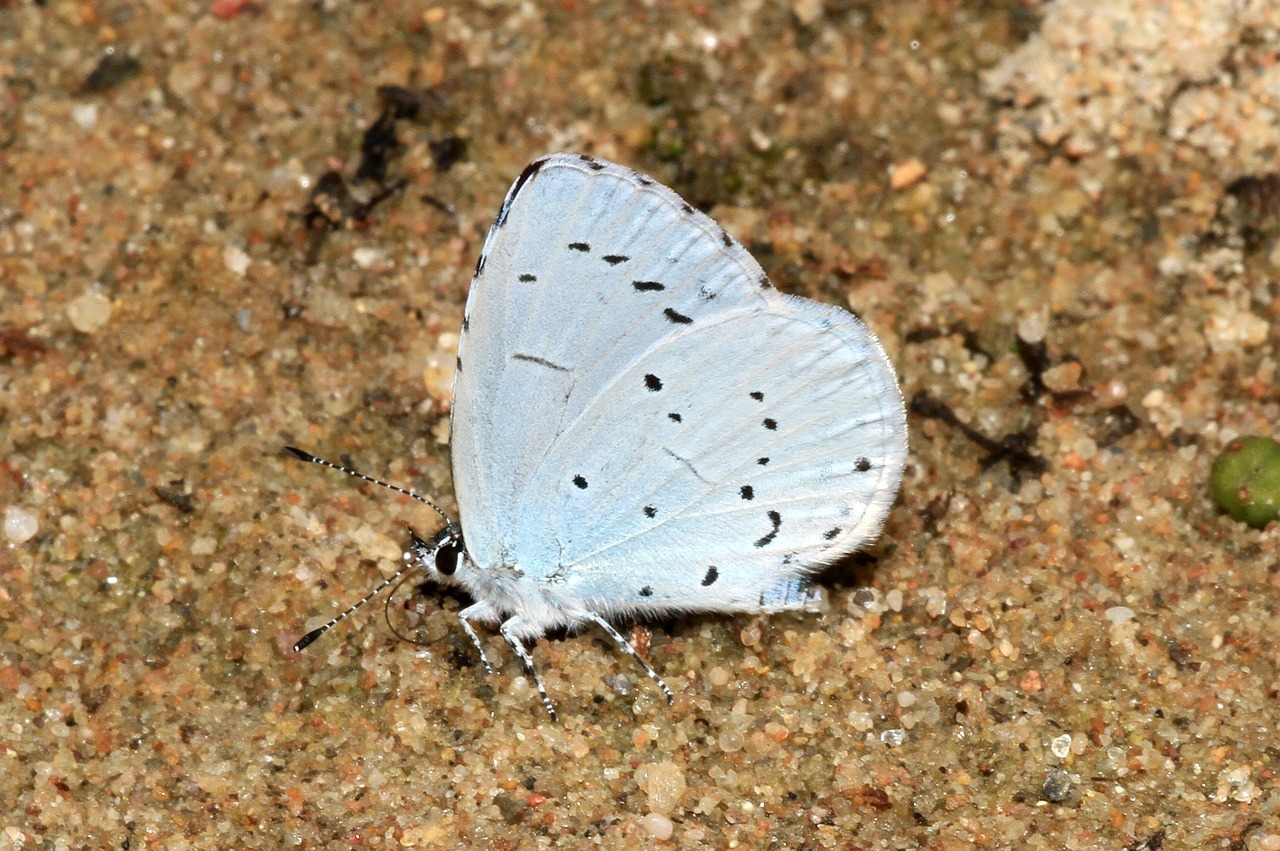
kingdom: Animalia
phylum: Arthropoda
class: Insecta
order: Lepidoptera
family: Lycaenidae
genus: Celastrina
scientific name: Celastrina argiolus
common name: Holly blue
